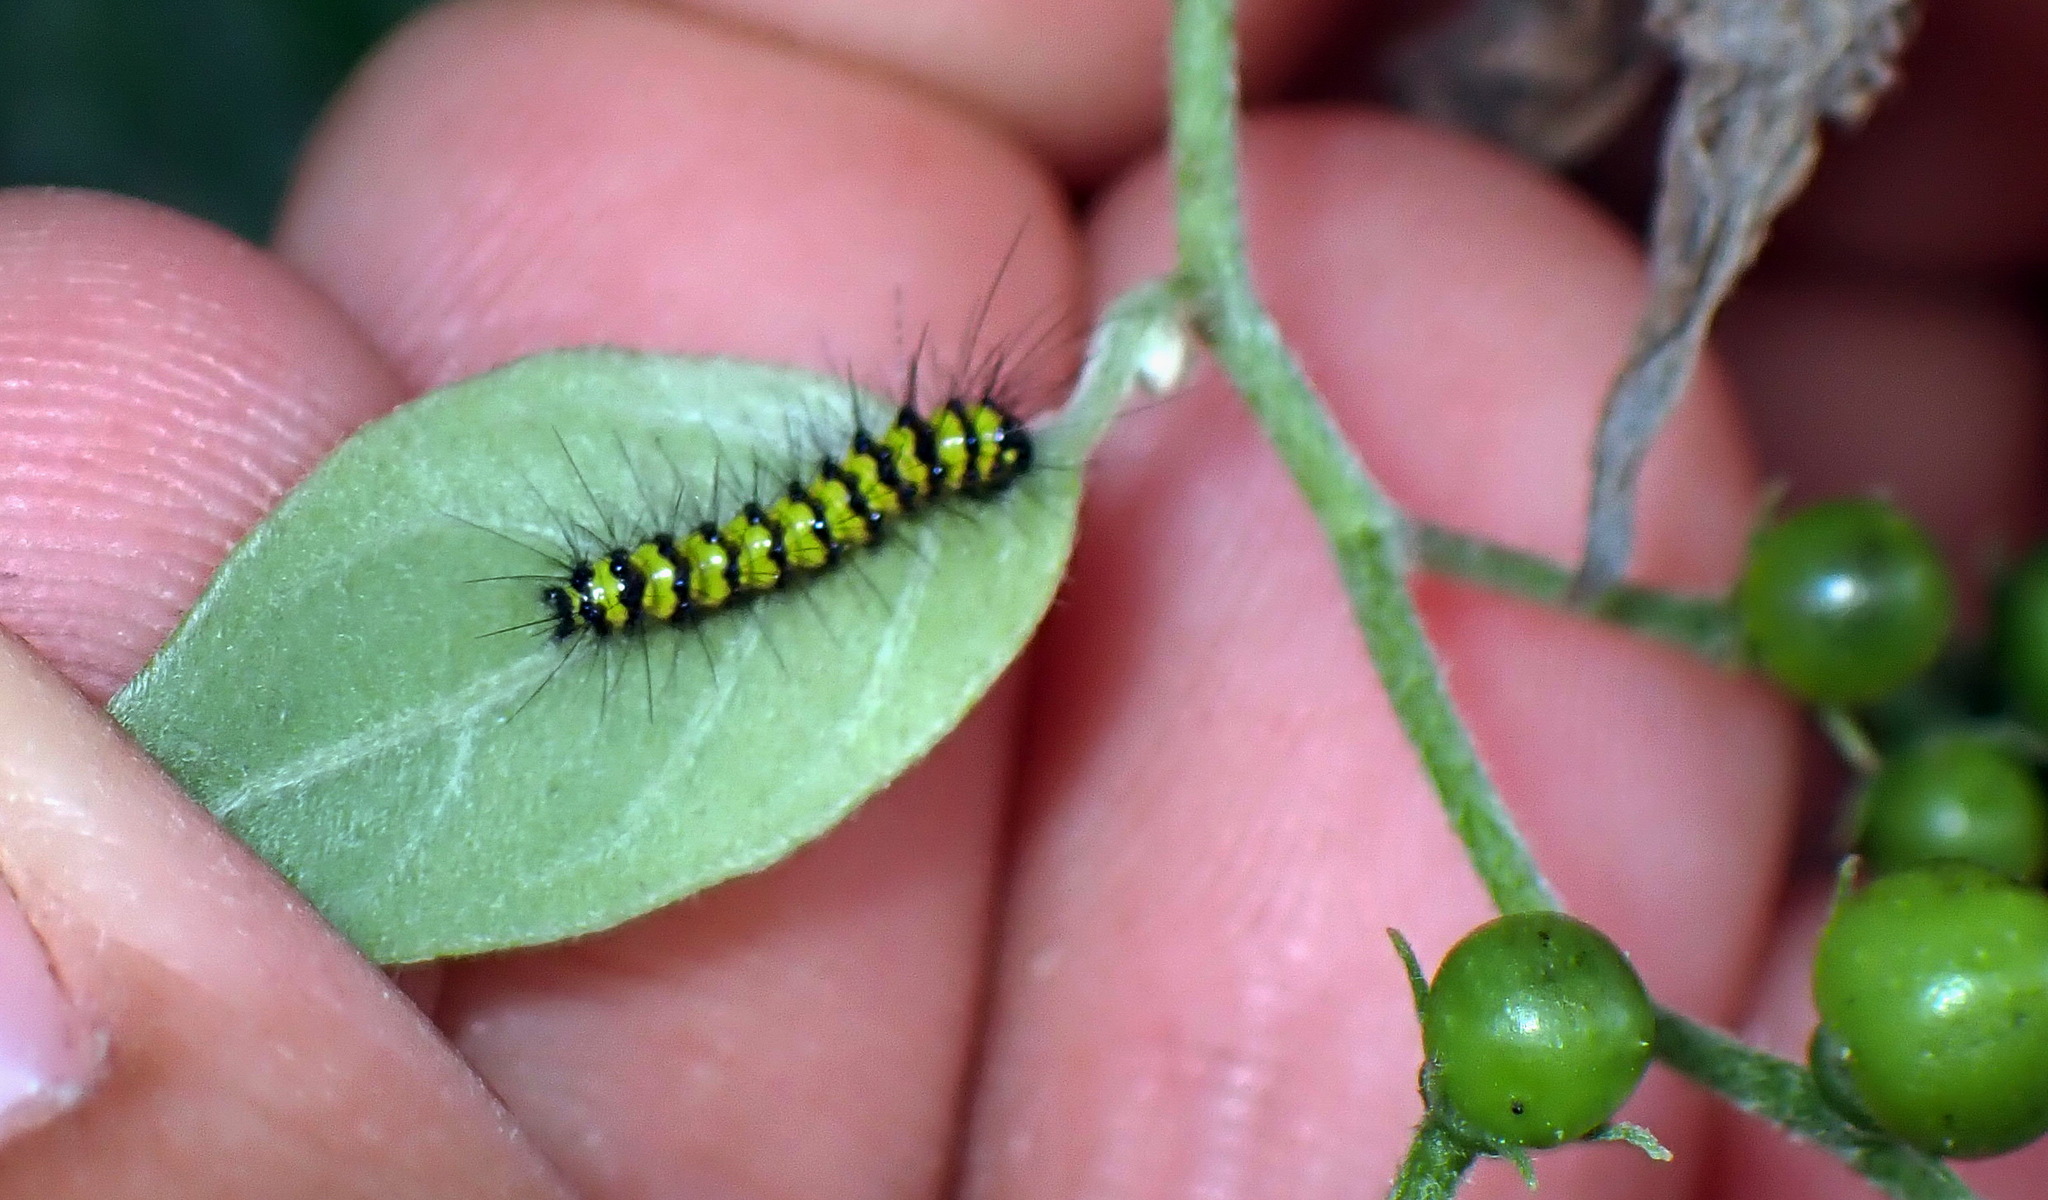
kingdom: Animalia
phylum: Arthropoda
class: Insecta
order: Lepidoptera
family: Erebidae
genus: Phaloesia
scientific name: Phaloesia saucia
